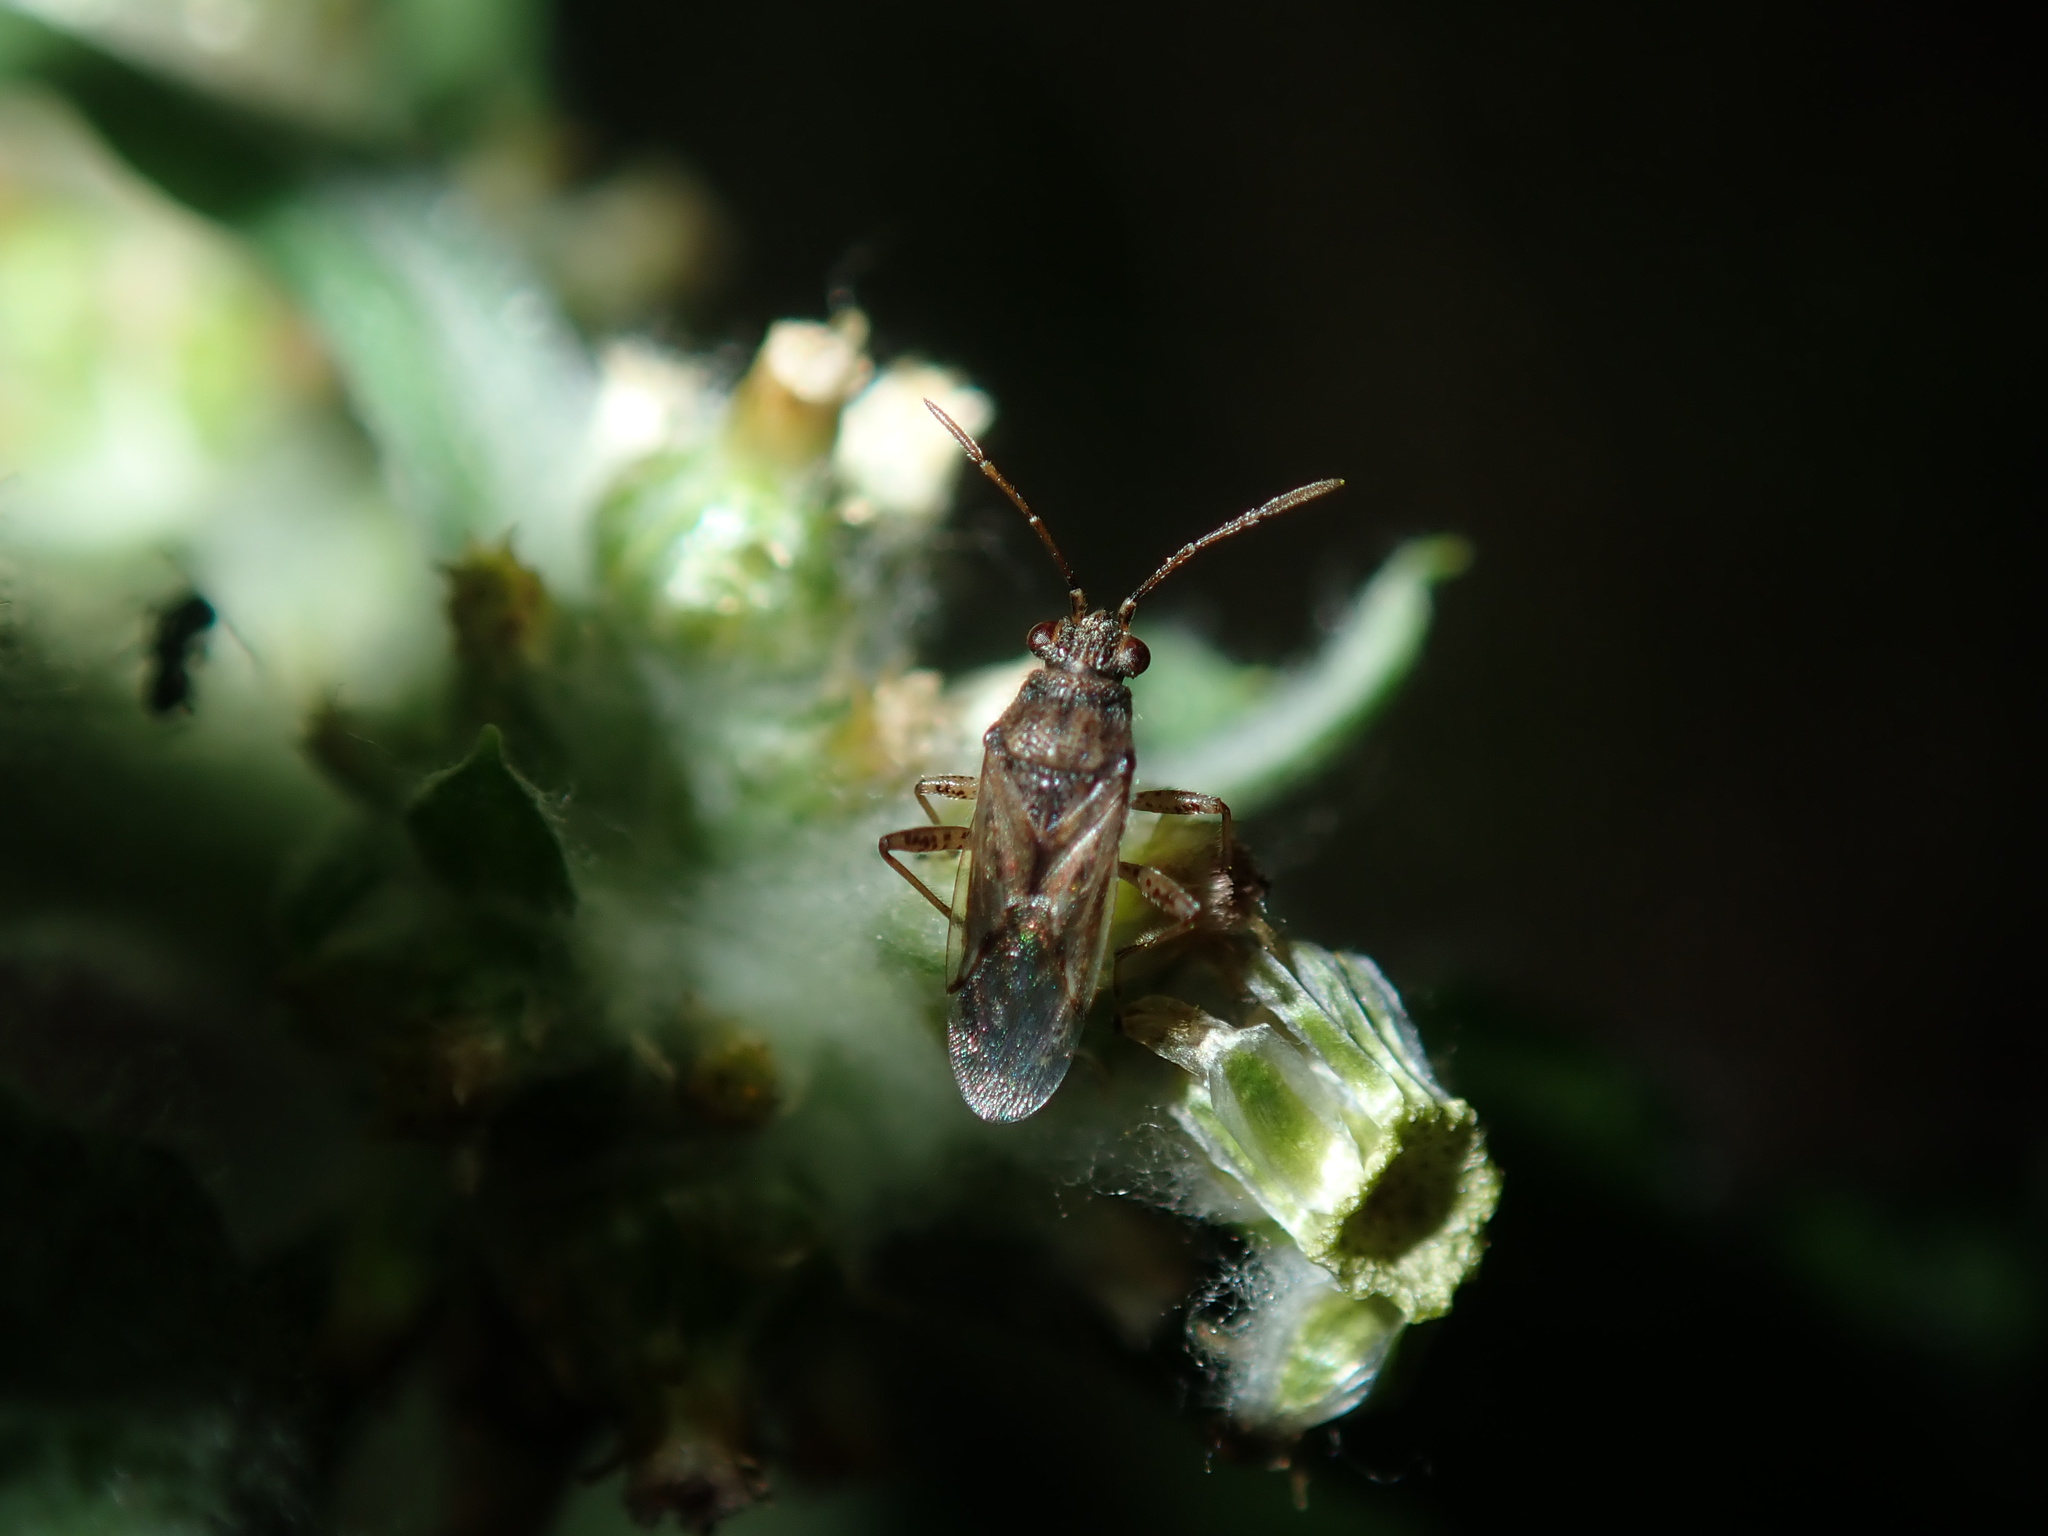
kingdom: Animalia
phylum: Arthropoda
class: Insecta
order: Hemiptera
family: Lygaeidae
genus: Nysius
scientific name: Nysius vinitor
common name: Lygaeid bug
